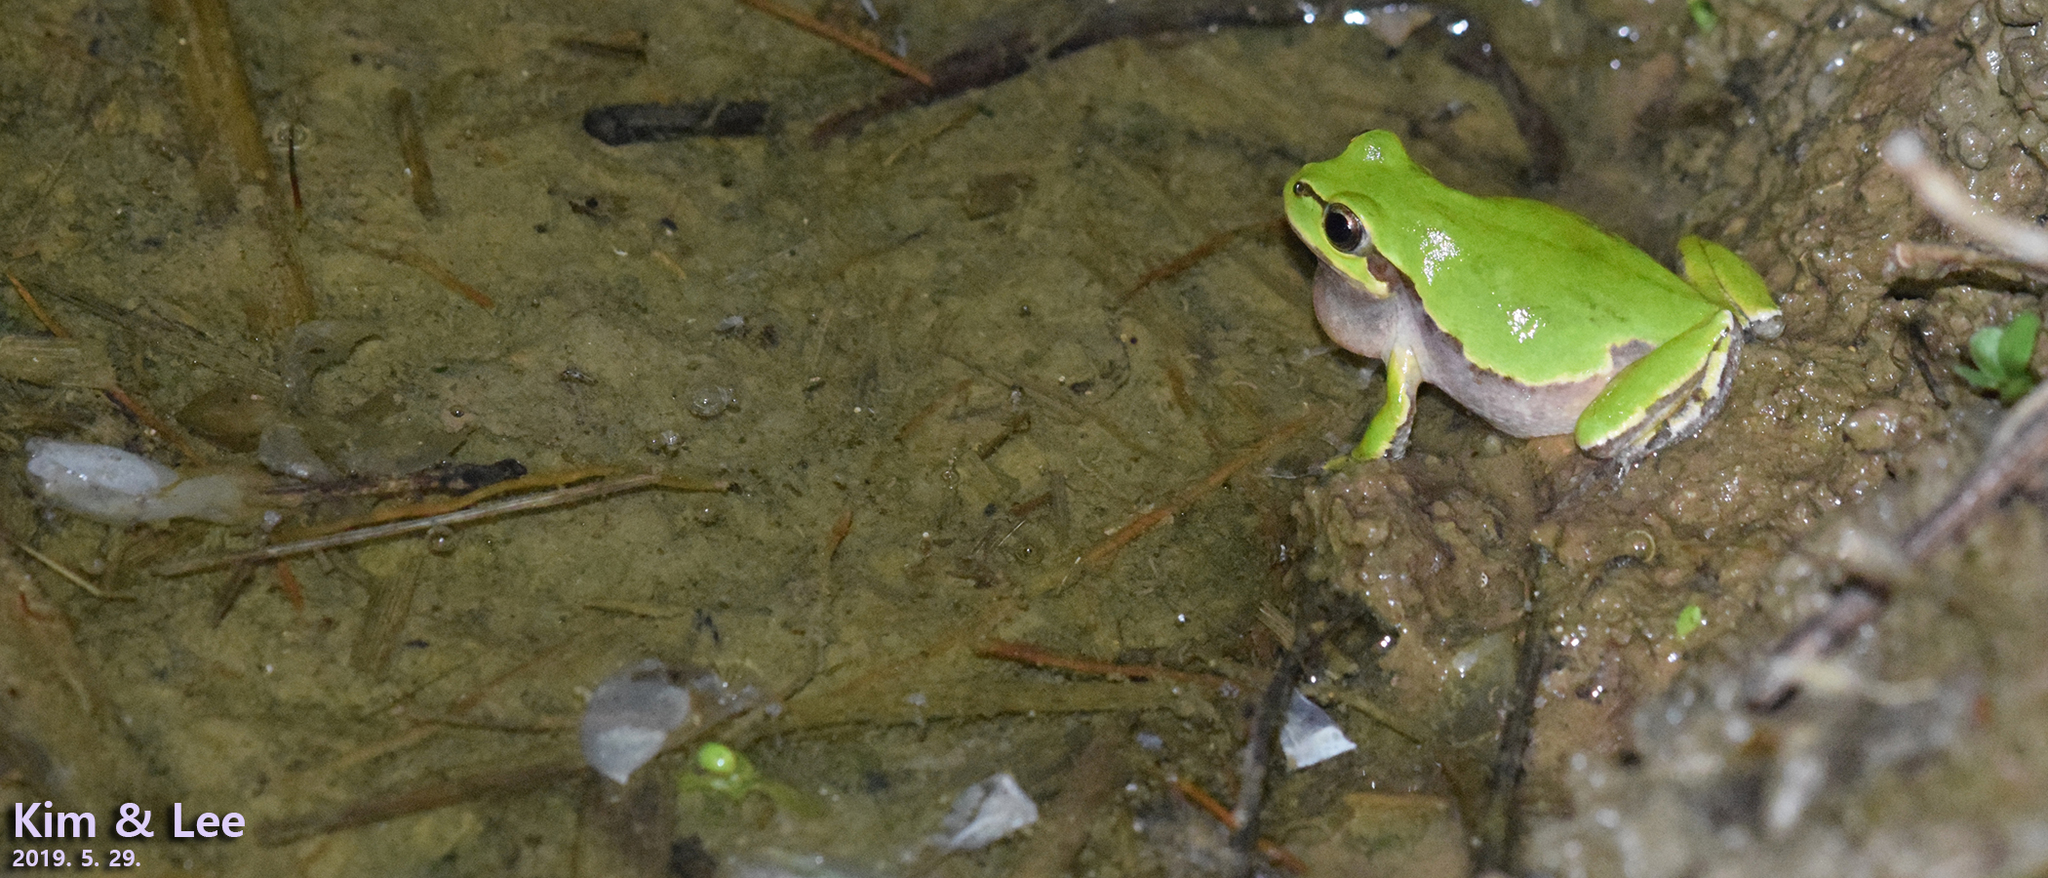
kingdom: Animalia
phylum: Chordata
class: Amphibia
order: Anura
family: Hylidae
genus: Dryophytes
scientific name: Dryophytes japonicus
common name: Japanese treefrog
